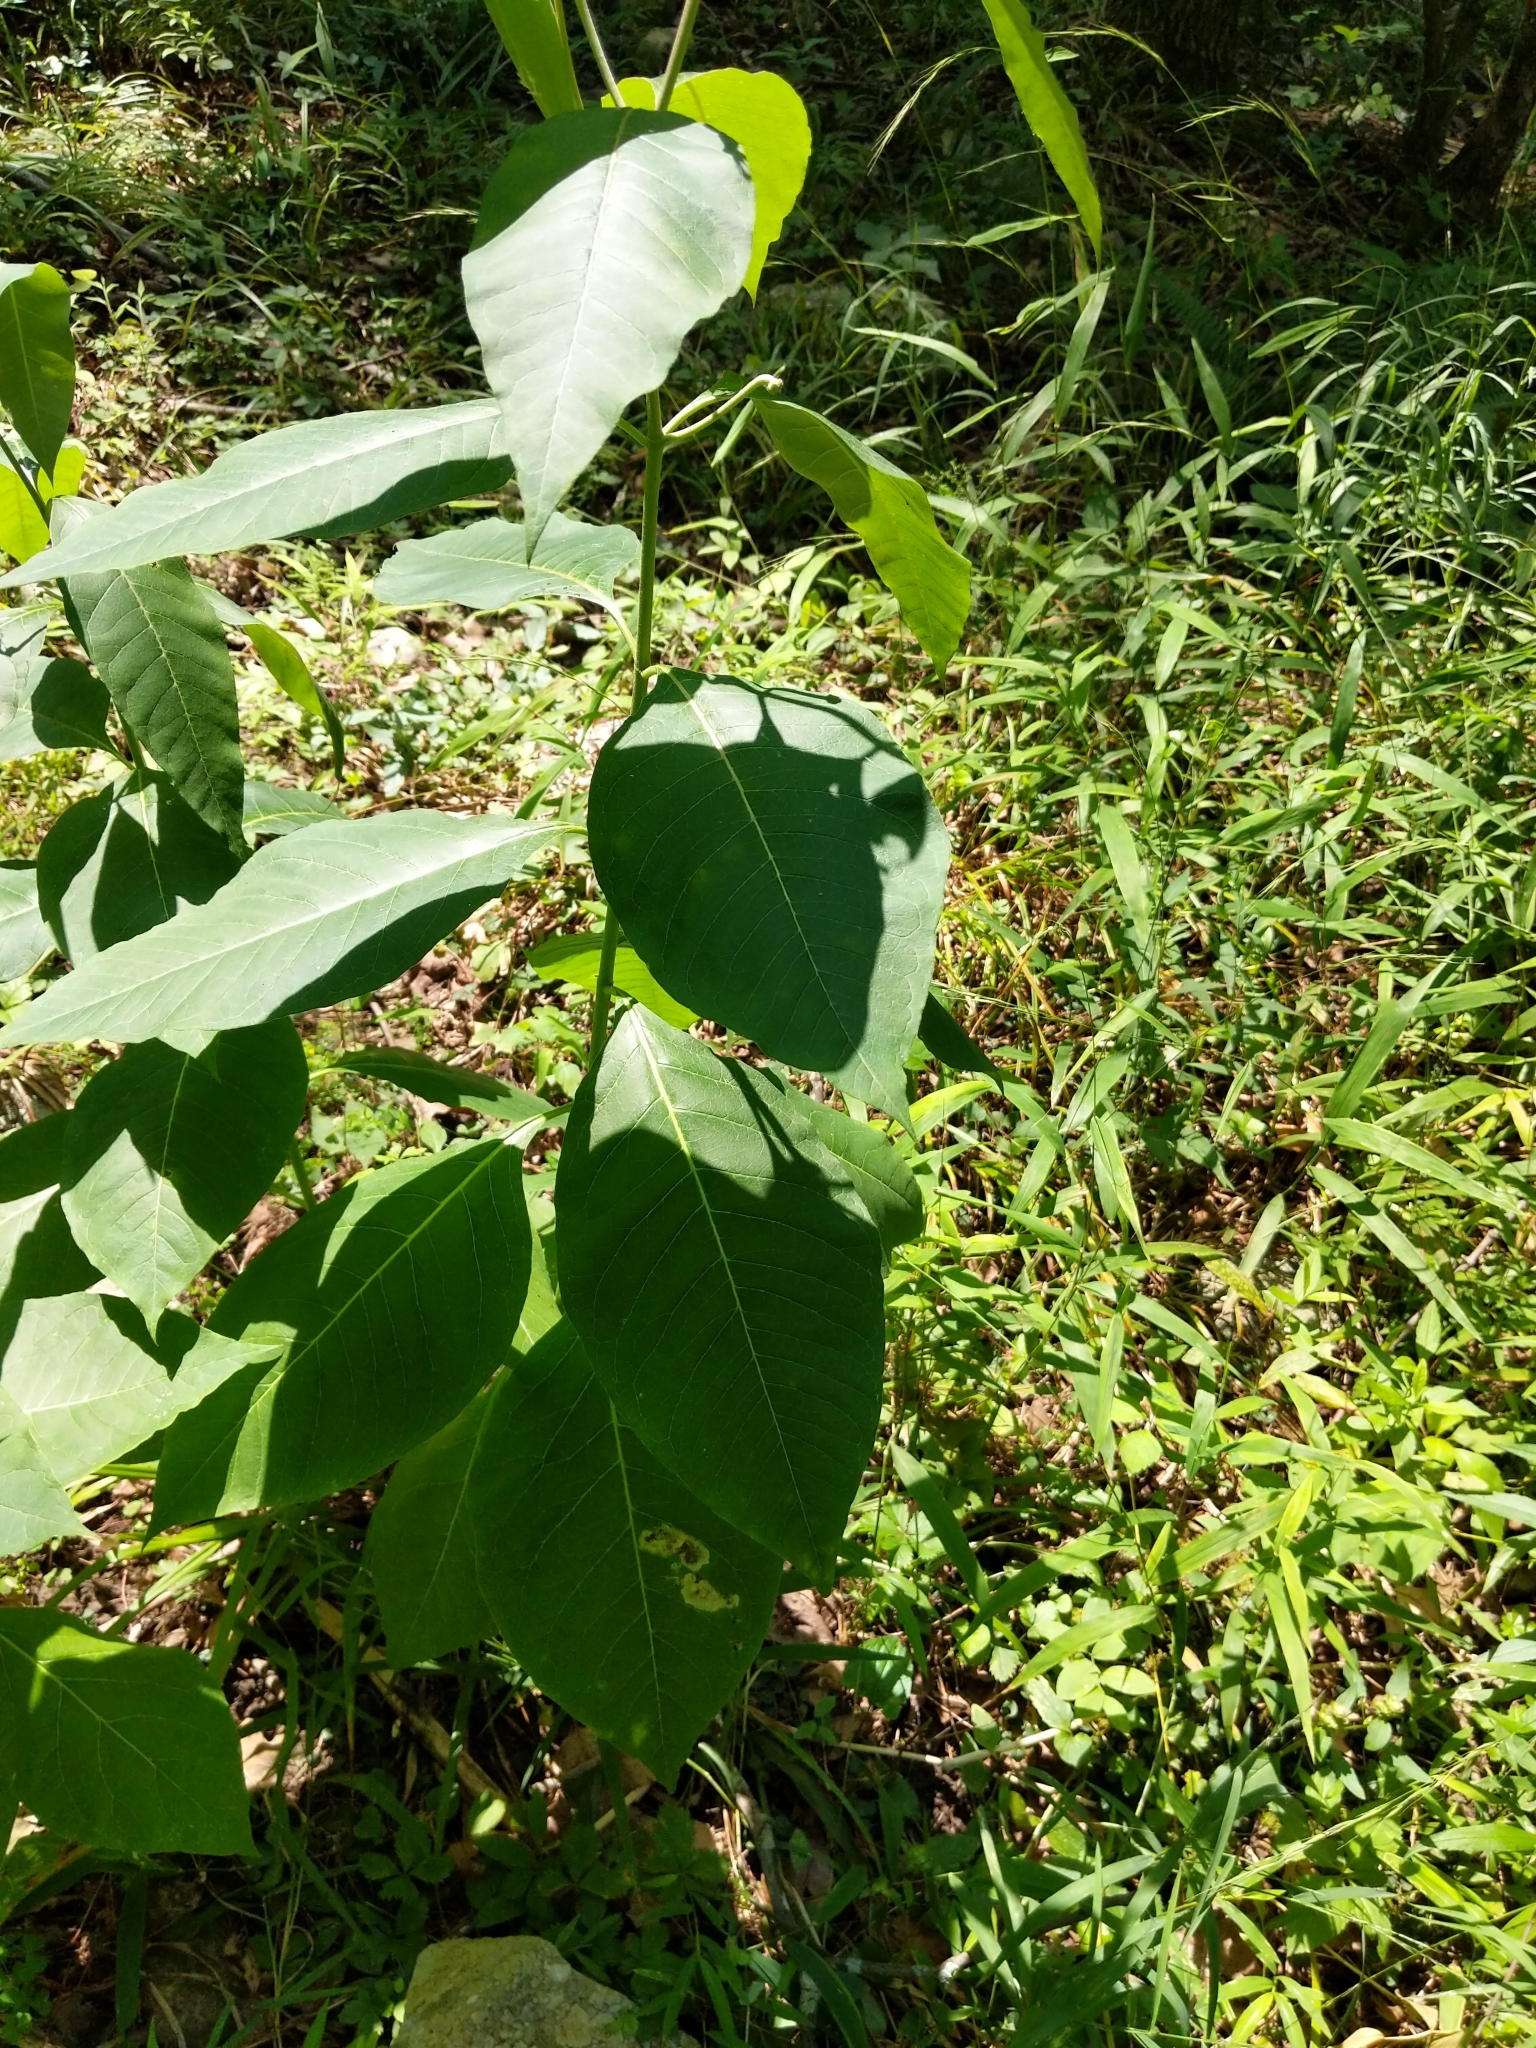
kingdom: Plantae
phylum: Tracheophyta
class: Magnoliopsida
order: Gentianales
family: Apocynaceae
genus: Asclepias
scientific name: Asclepias exaltata
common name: Poke milkweed
